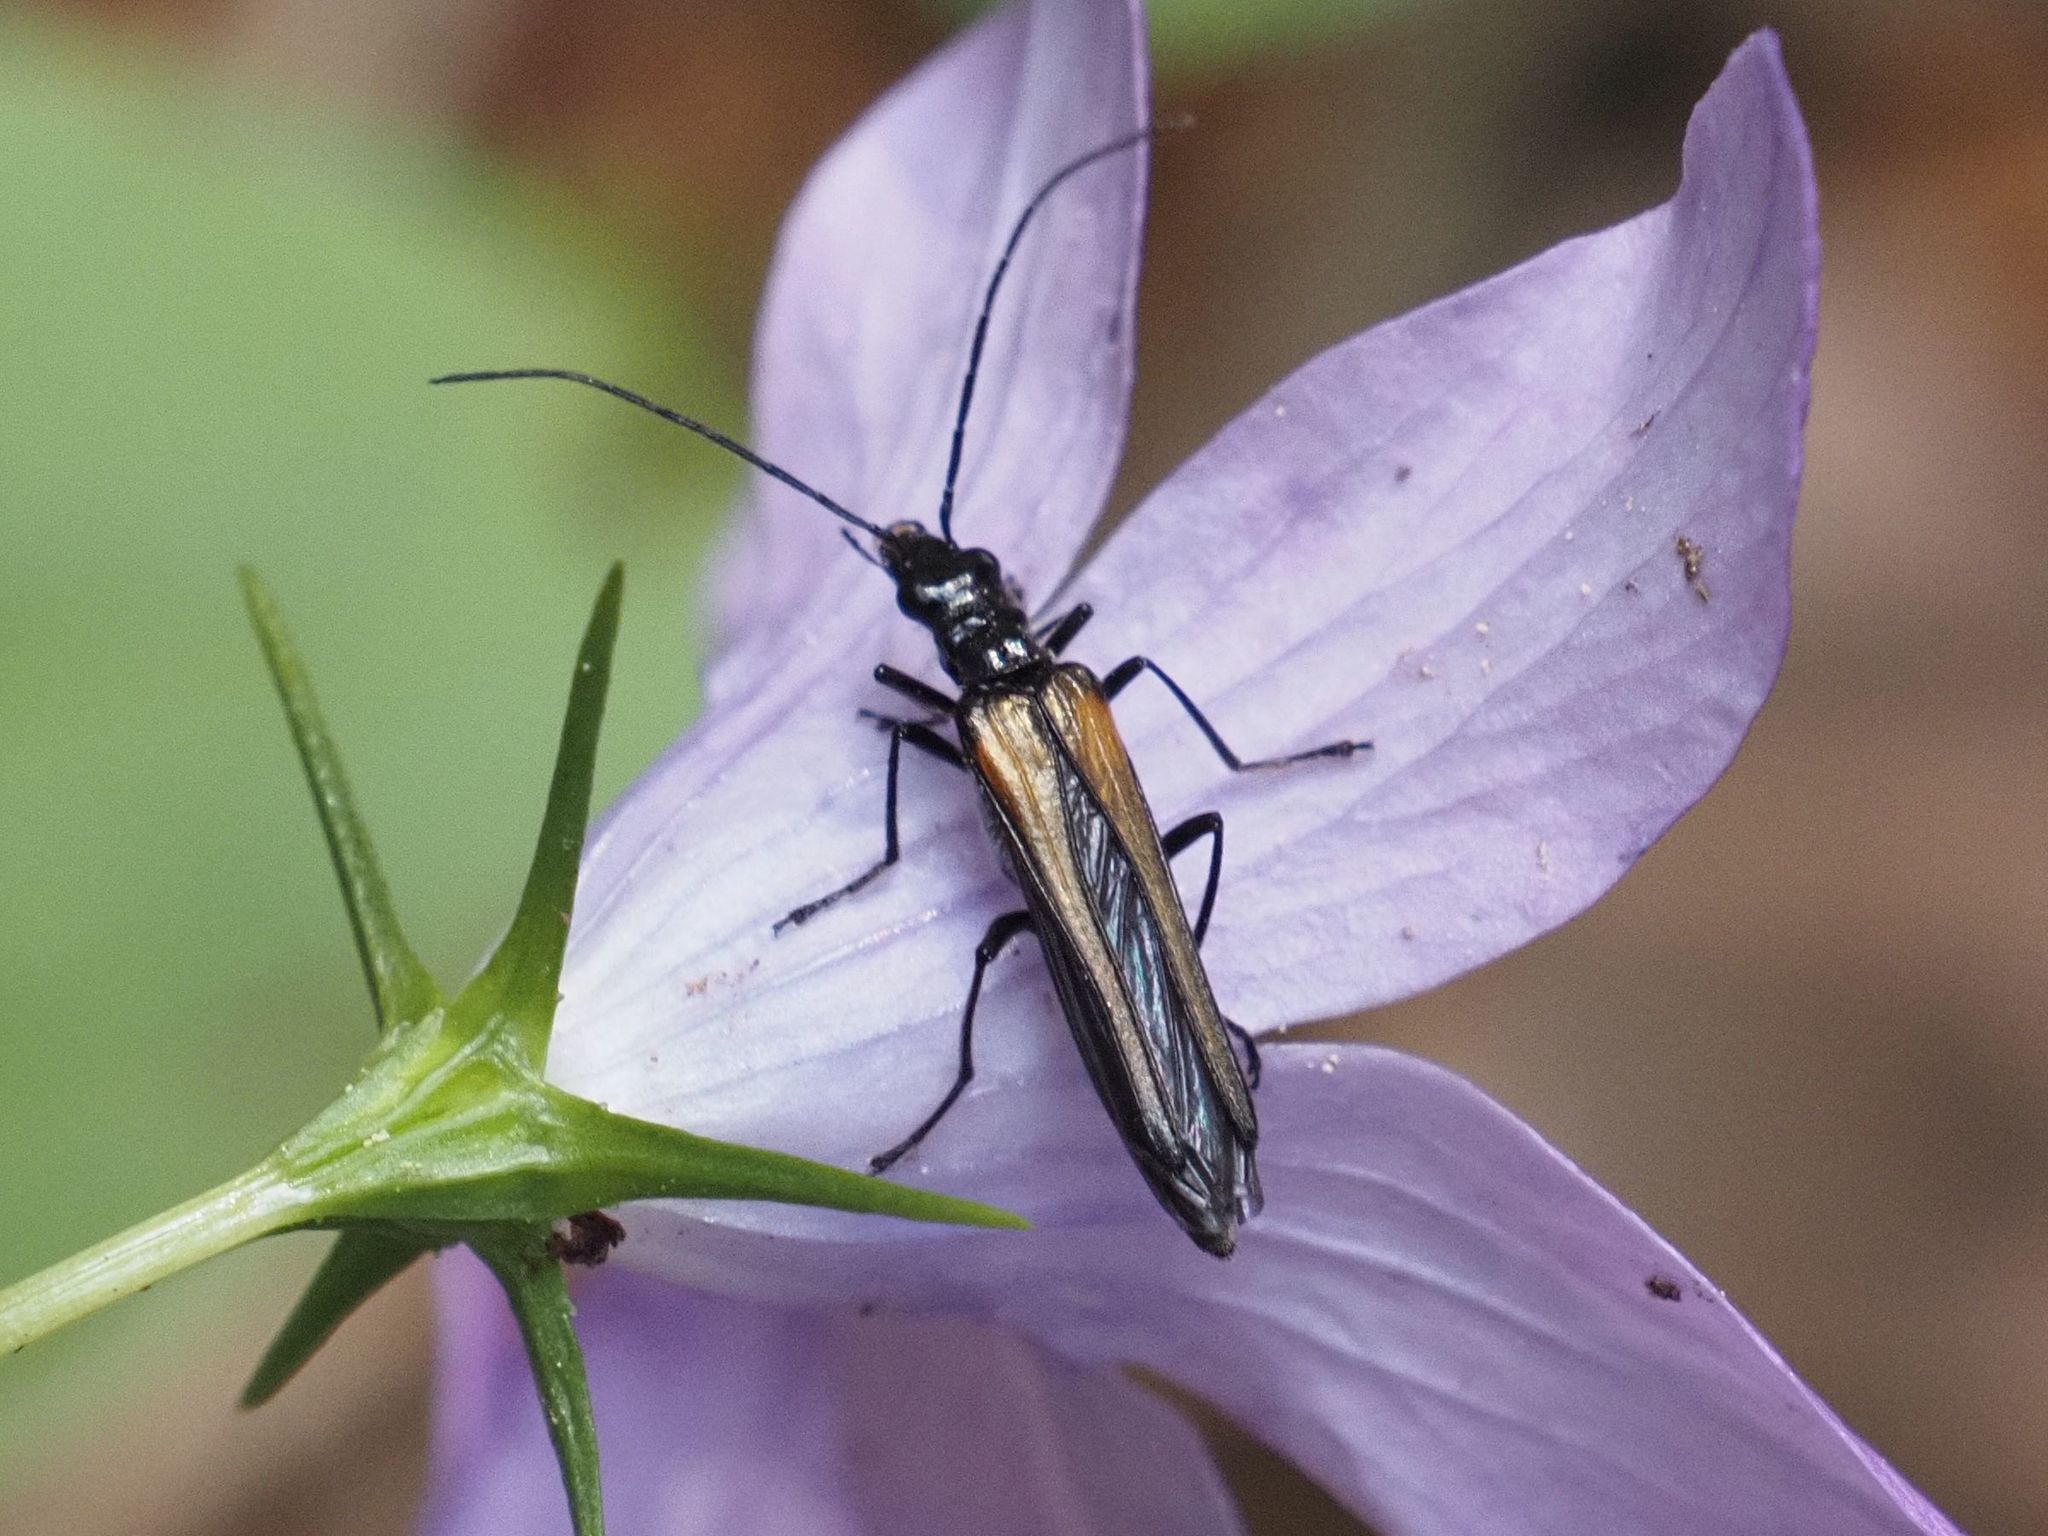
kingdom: Animalia
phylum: Arthropoda
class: Insecta
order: Coleoptera
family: Oedemeridae
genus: Oedemera
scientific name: Oedemera pthysica
